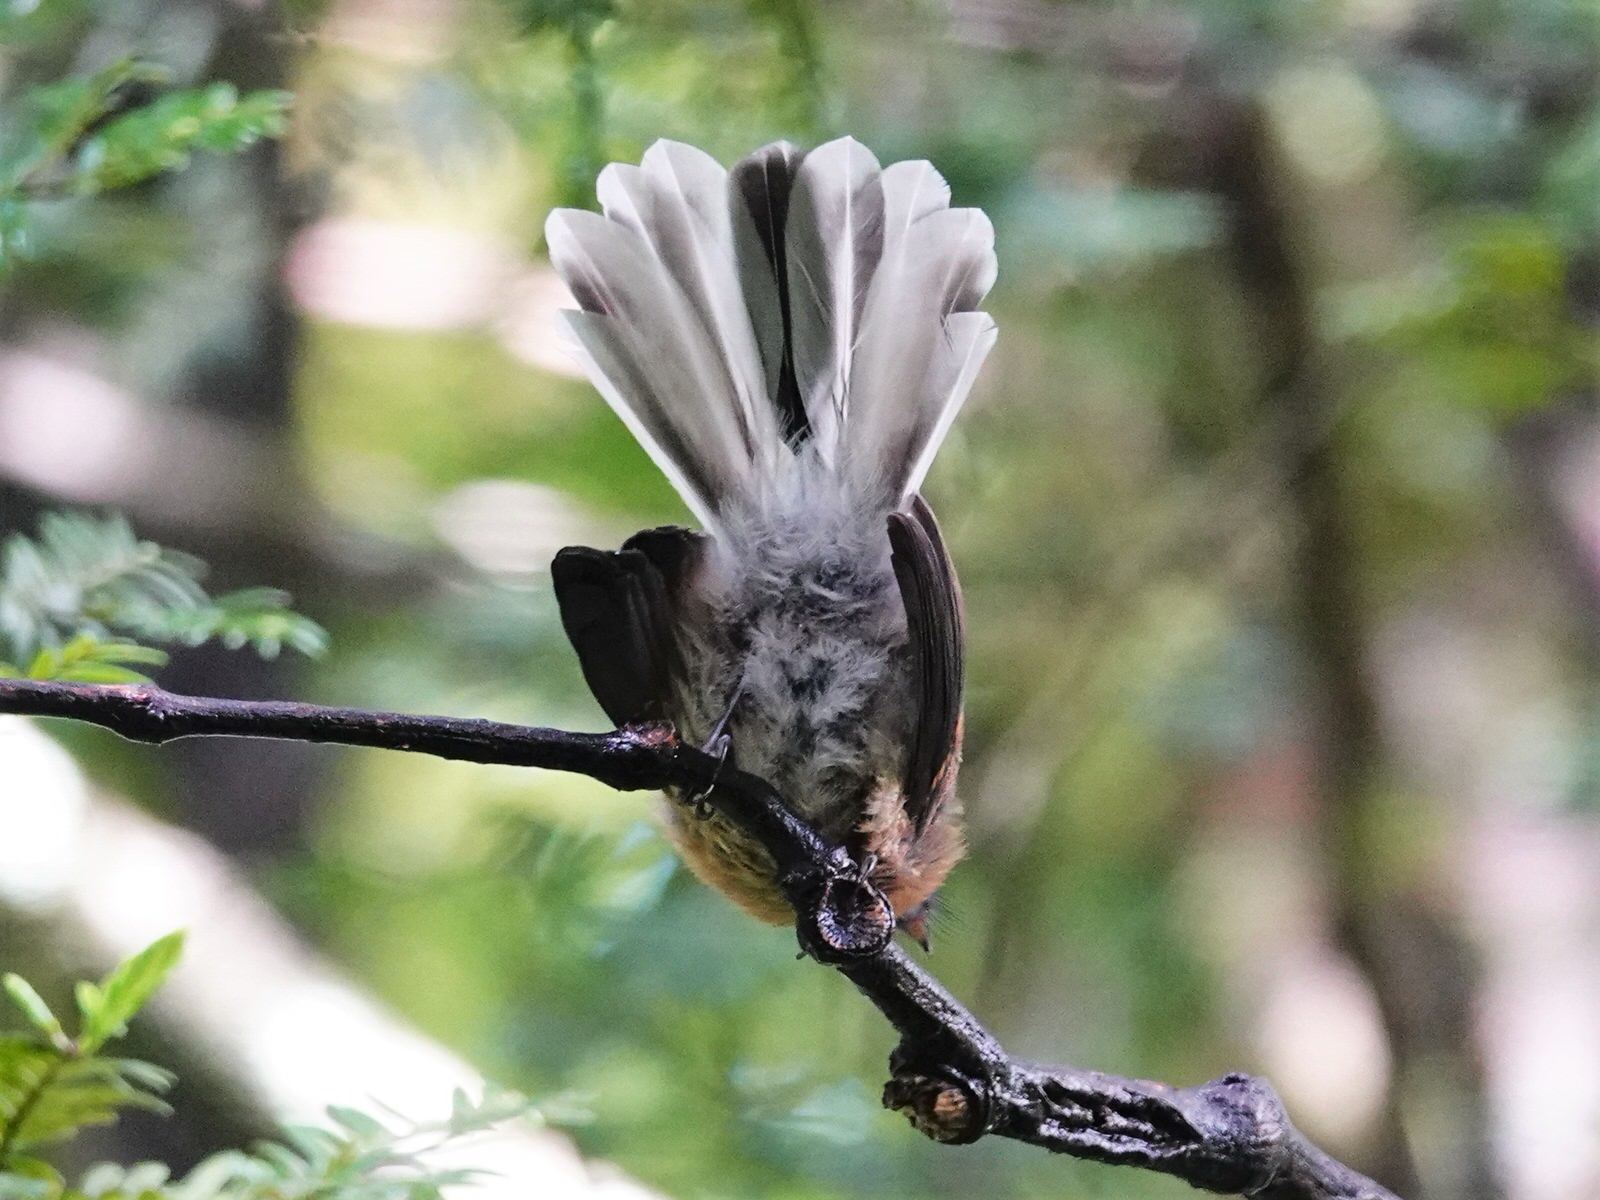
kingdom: Animalia
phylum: Chordata
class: Aves
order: Passeriformes
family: Rhipiduridae
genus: Rhipidura
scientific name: Rhipidura fuliginosa
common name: New zealand fantail
